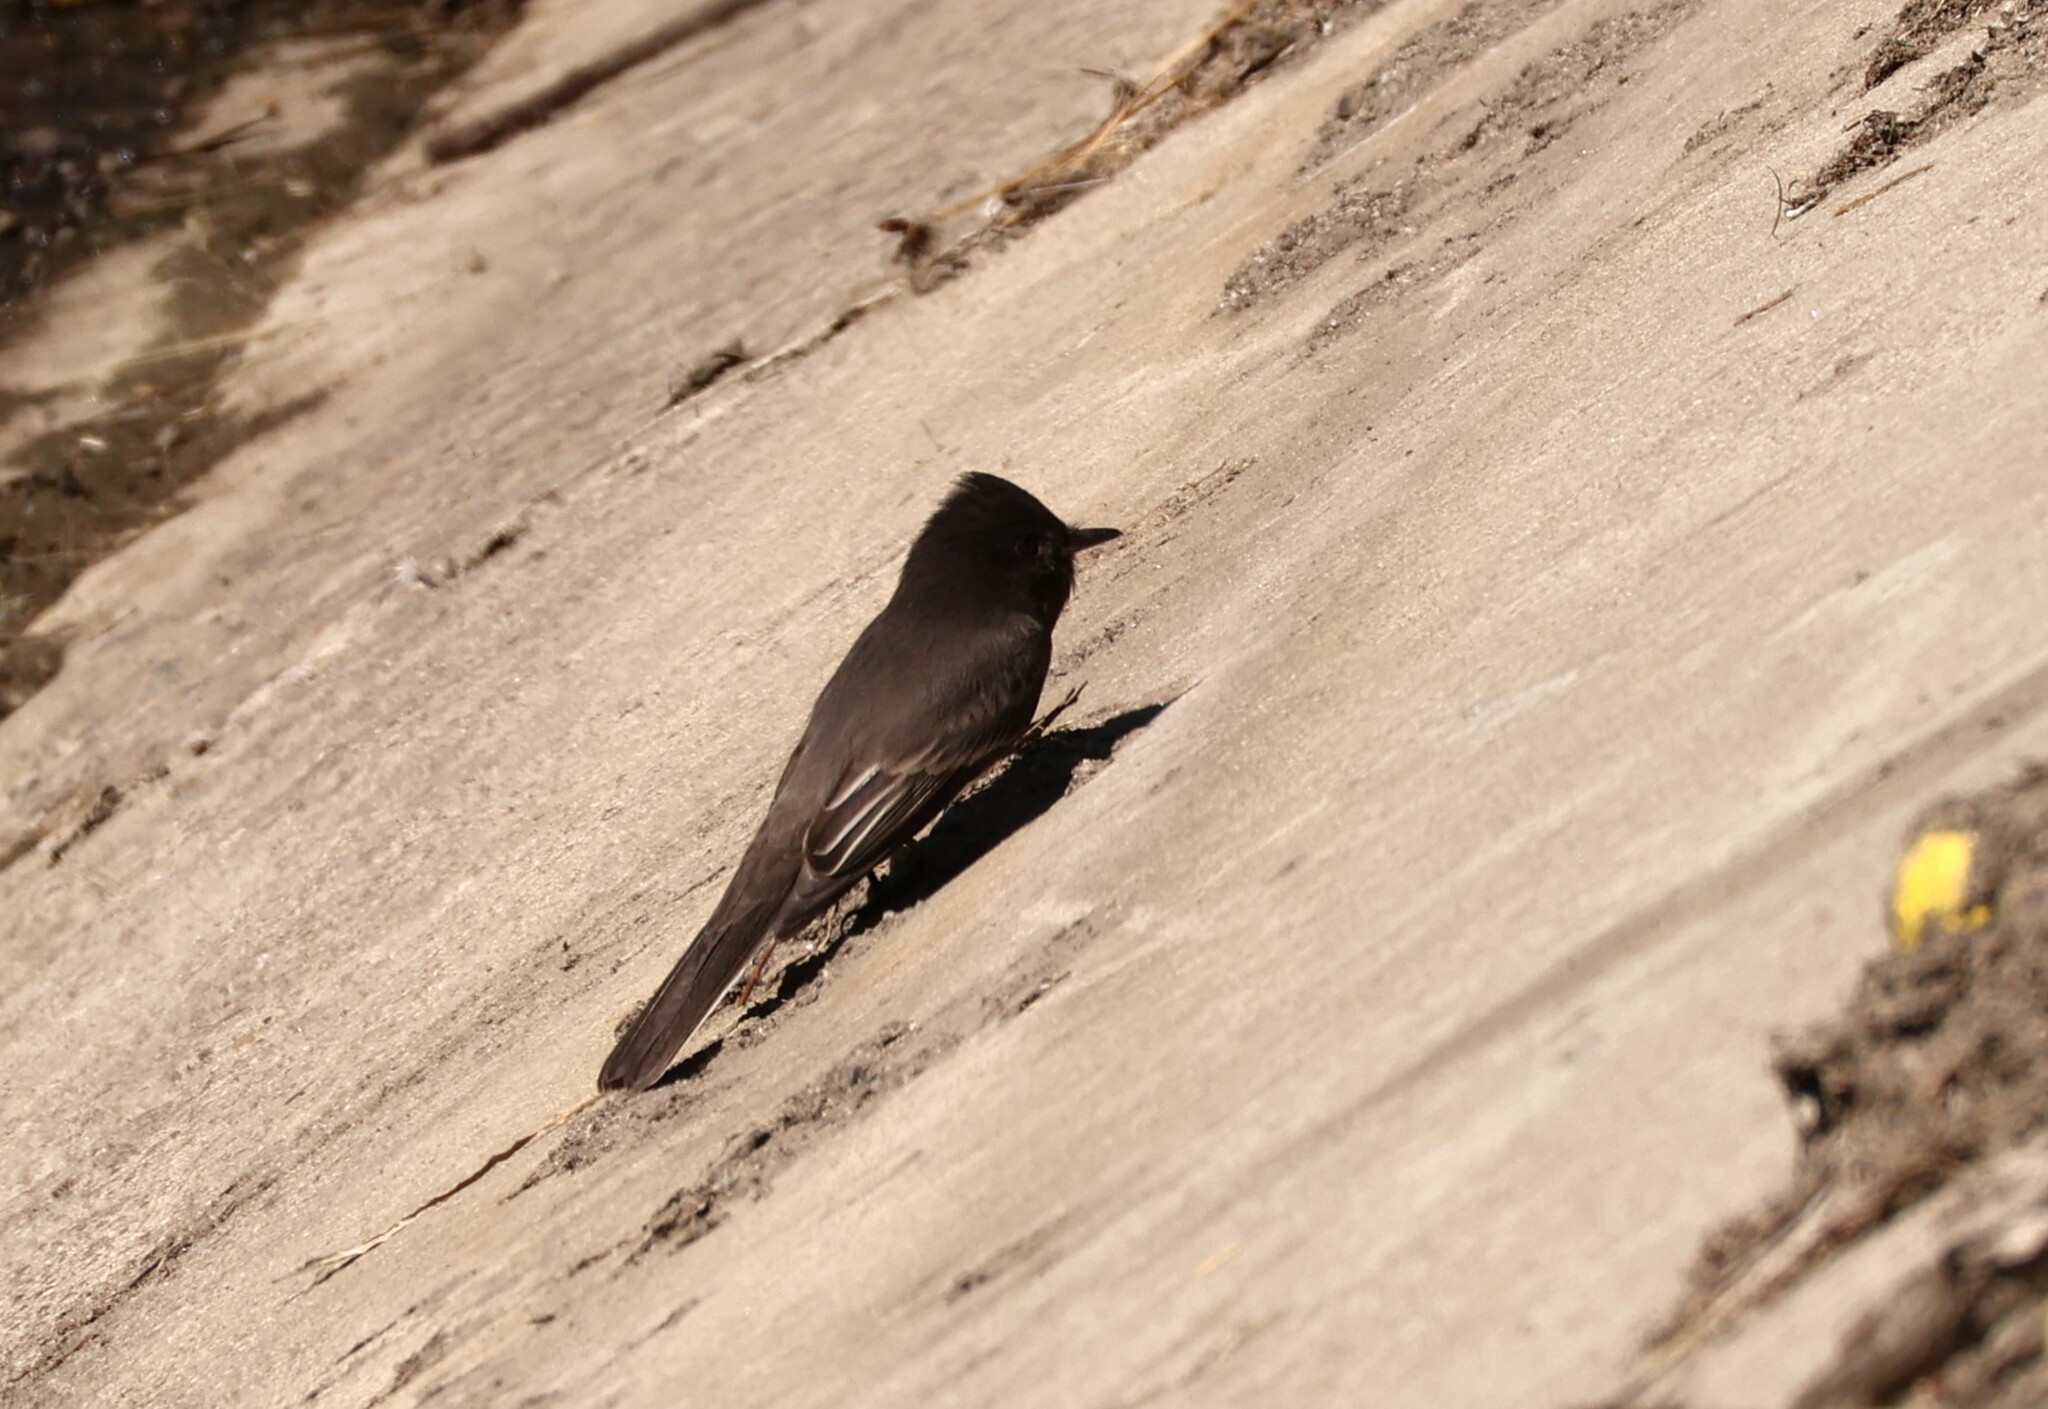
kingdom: Animalia
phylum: Chordata
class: Aves
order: Passeriformes
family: Tyrannidae
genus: Sayornis
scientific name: Sayornis nigricans
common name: Black phoebe
